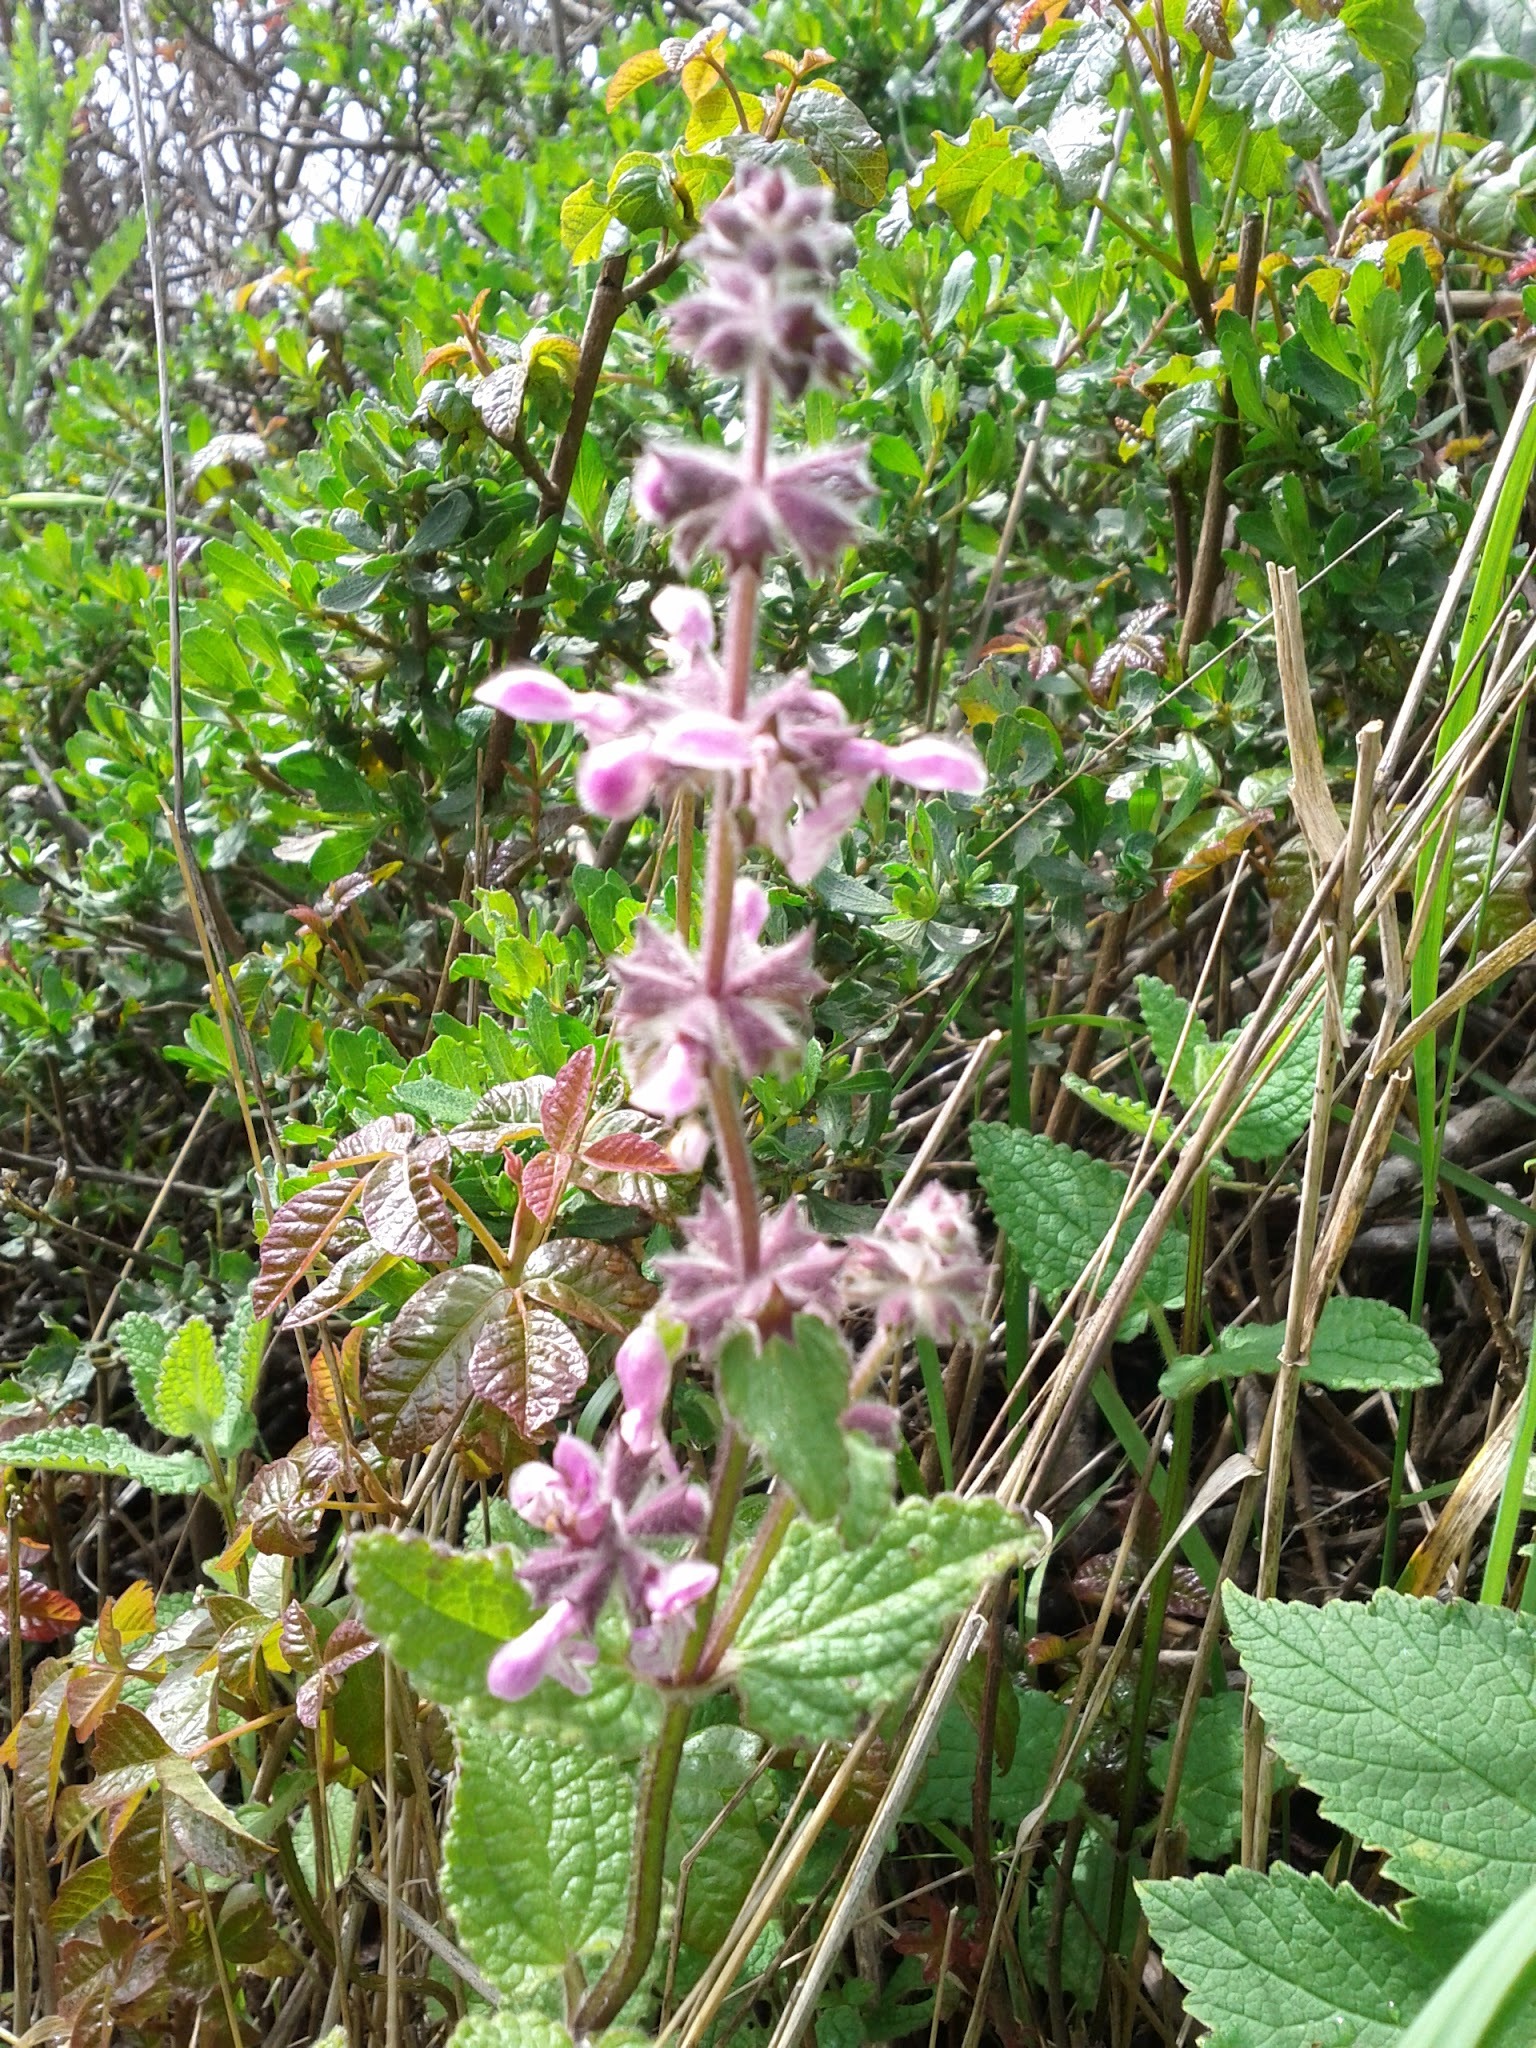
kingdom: Plantae
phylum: Tracheophyta
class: Magnoliopsida
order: Lamiales
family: Lamiaceae
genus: Stachys
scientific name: Stachys rigida
